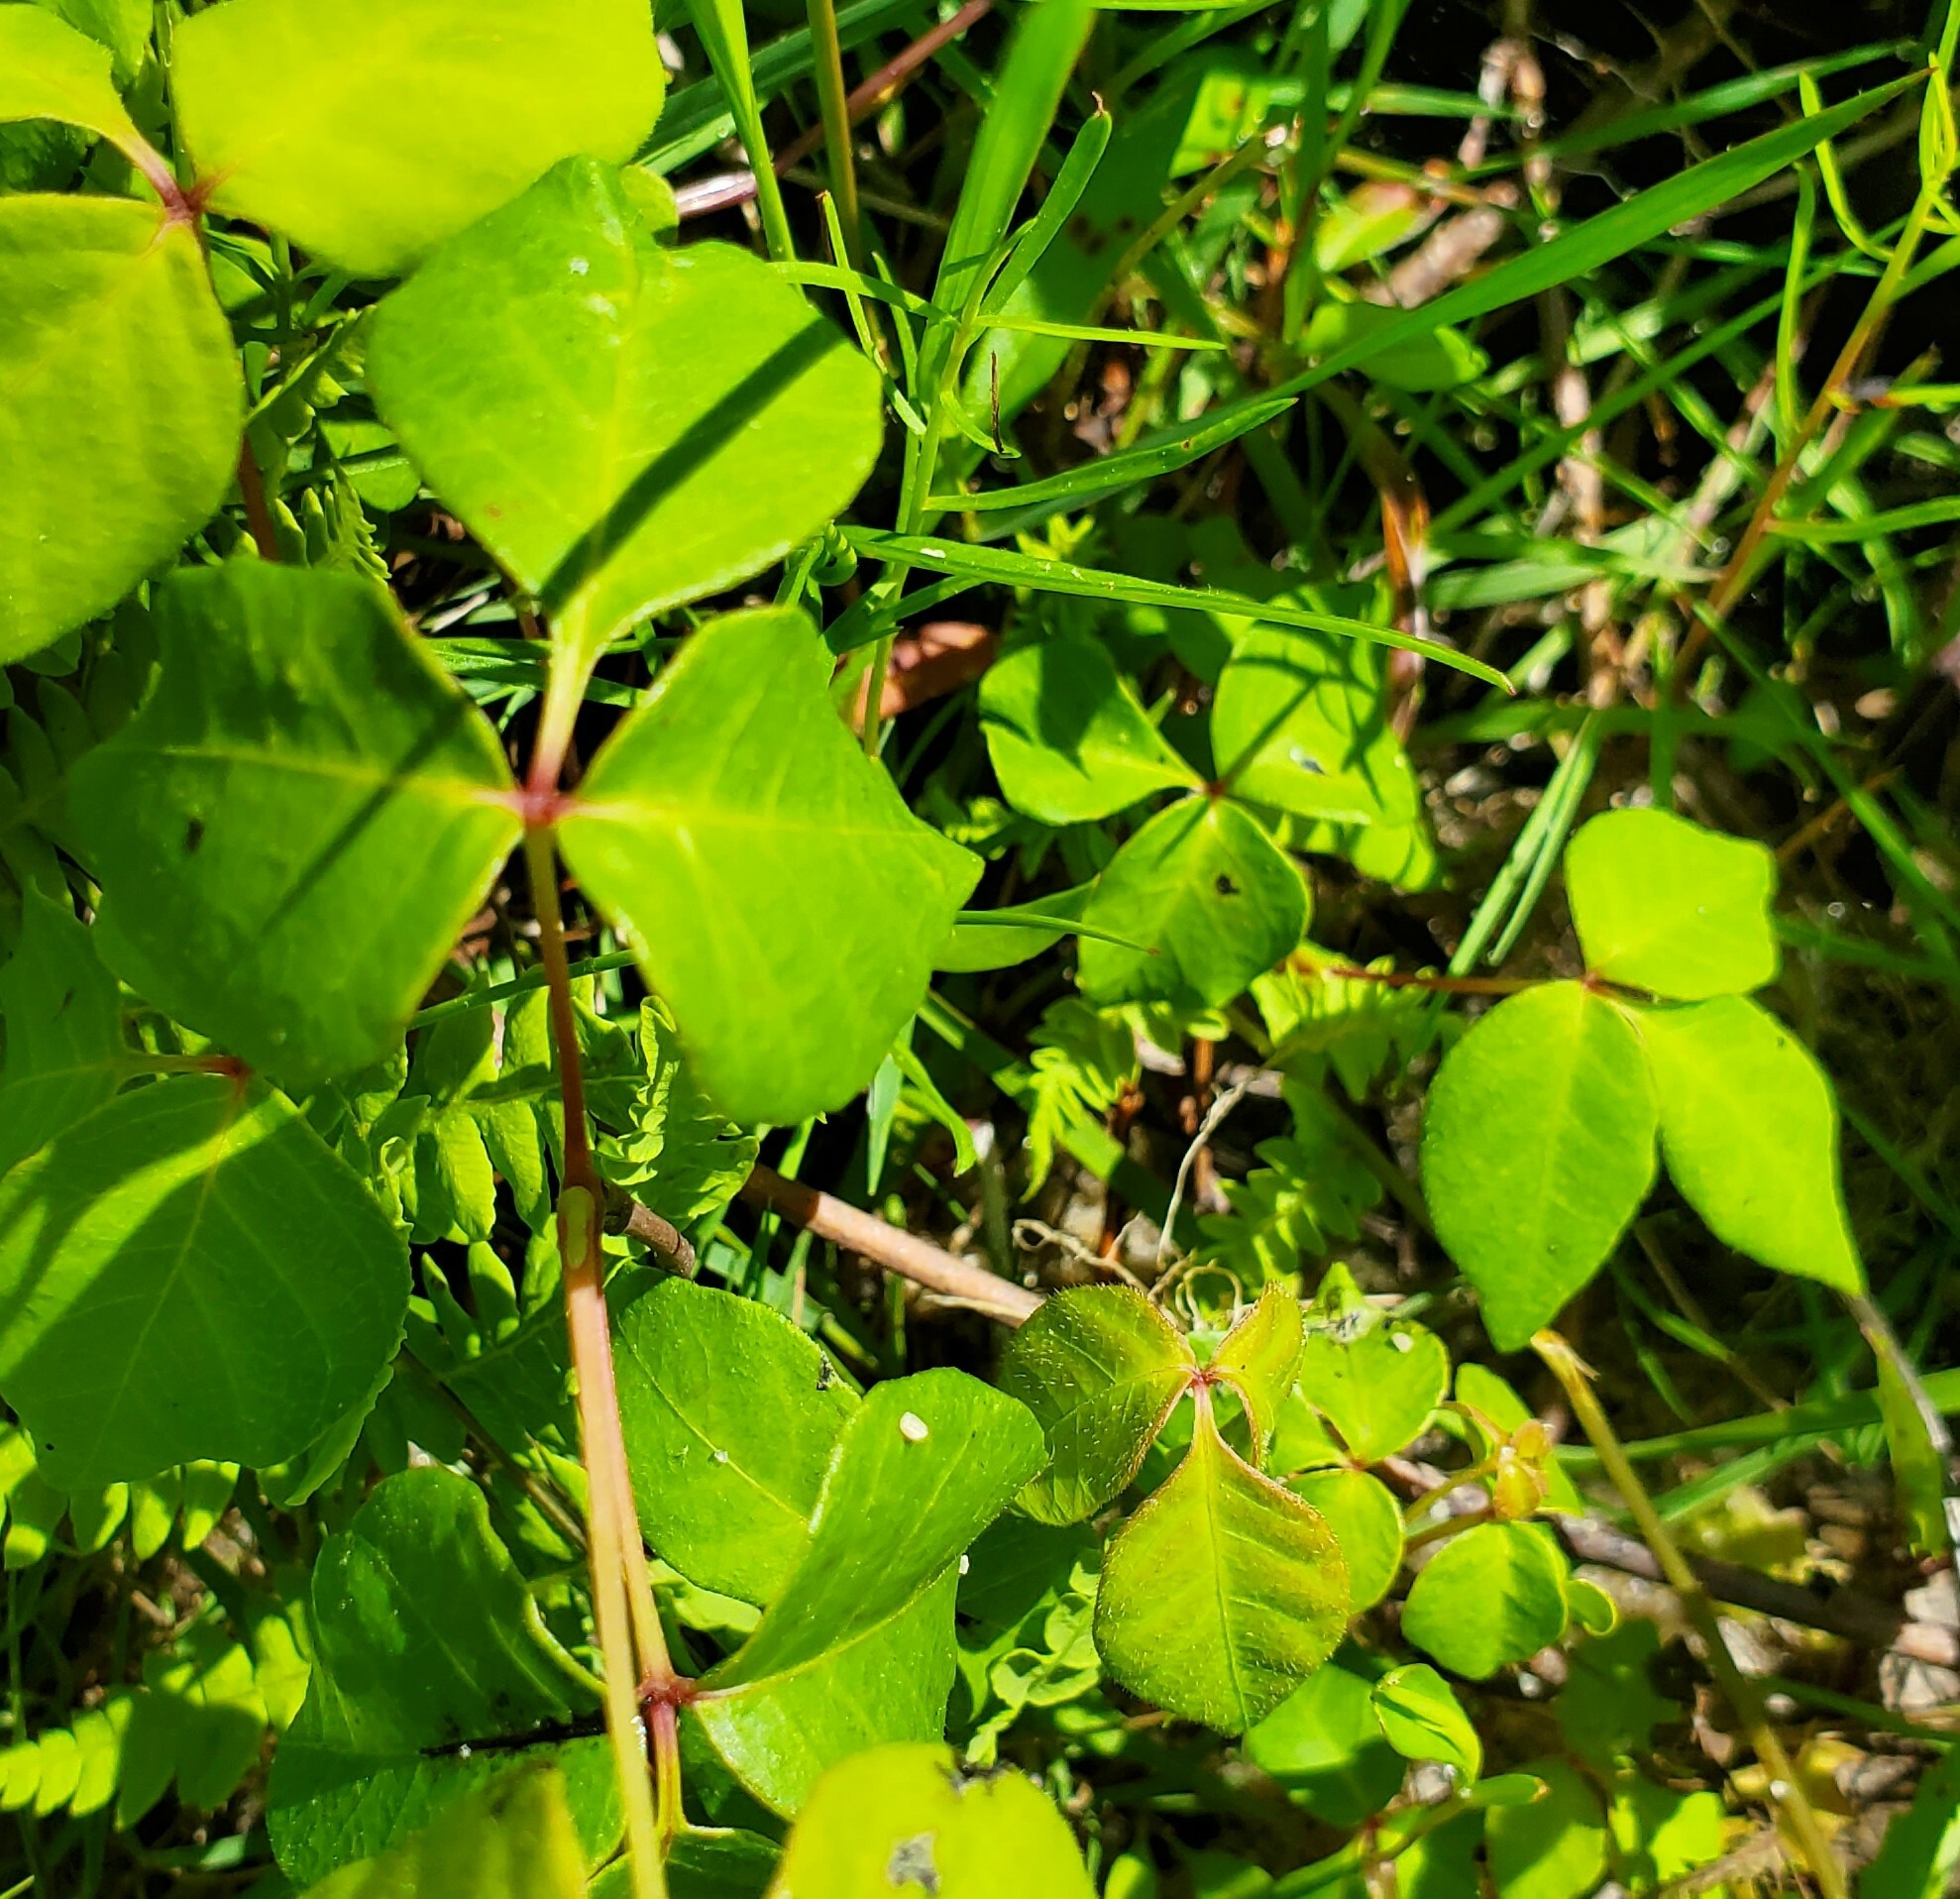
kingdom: Plantae
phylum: Tracheophyta
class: Magnoliopsida
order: Sapindales
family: Anacardiaceae
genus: Toxicodendron
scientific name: Toxicodendron radicans
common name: Poison ivy
